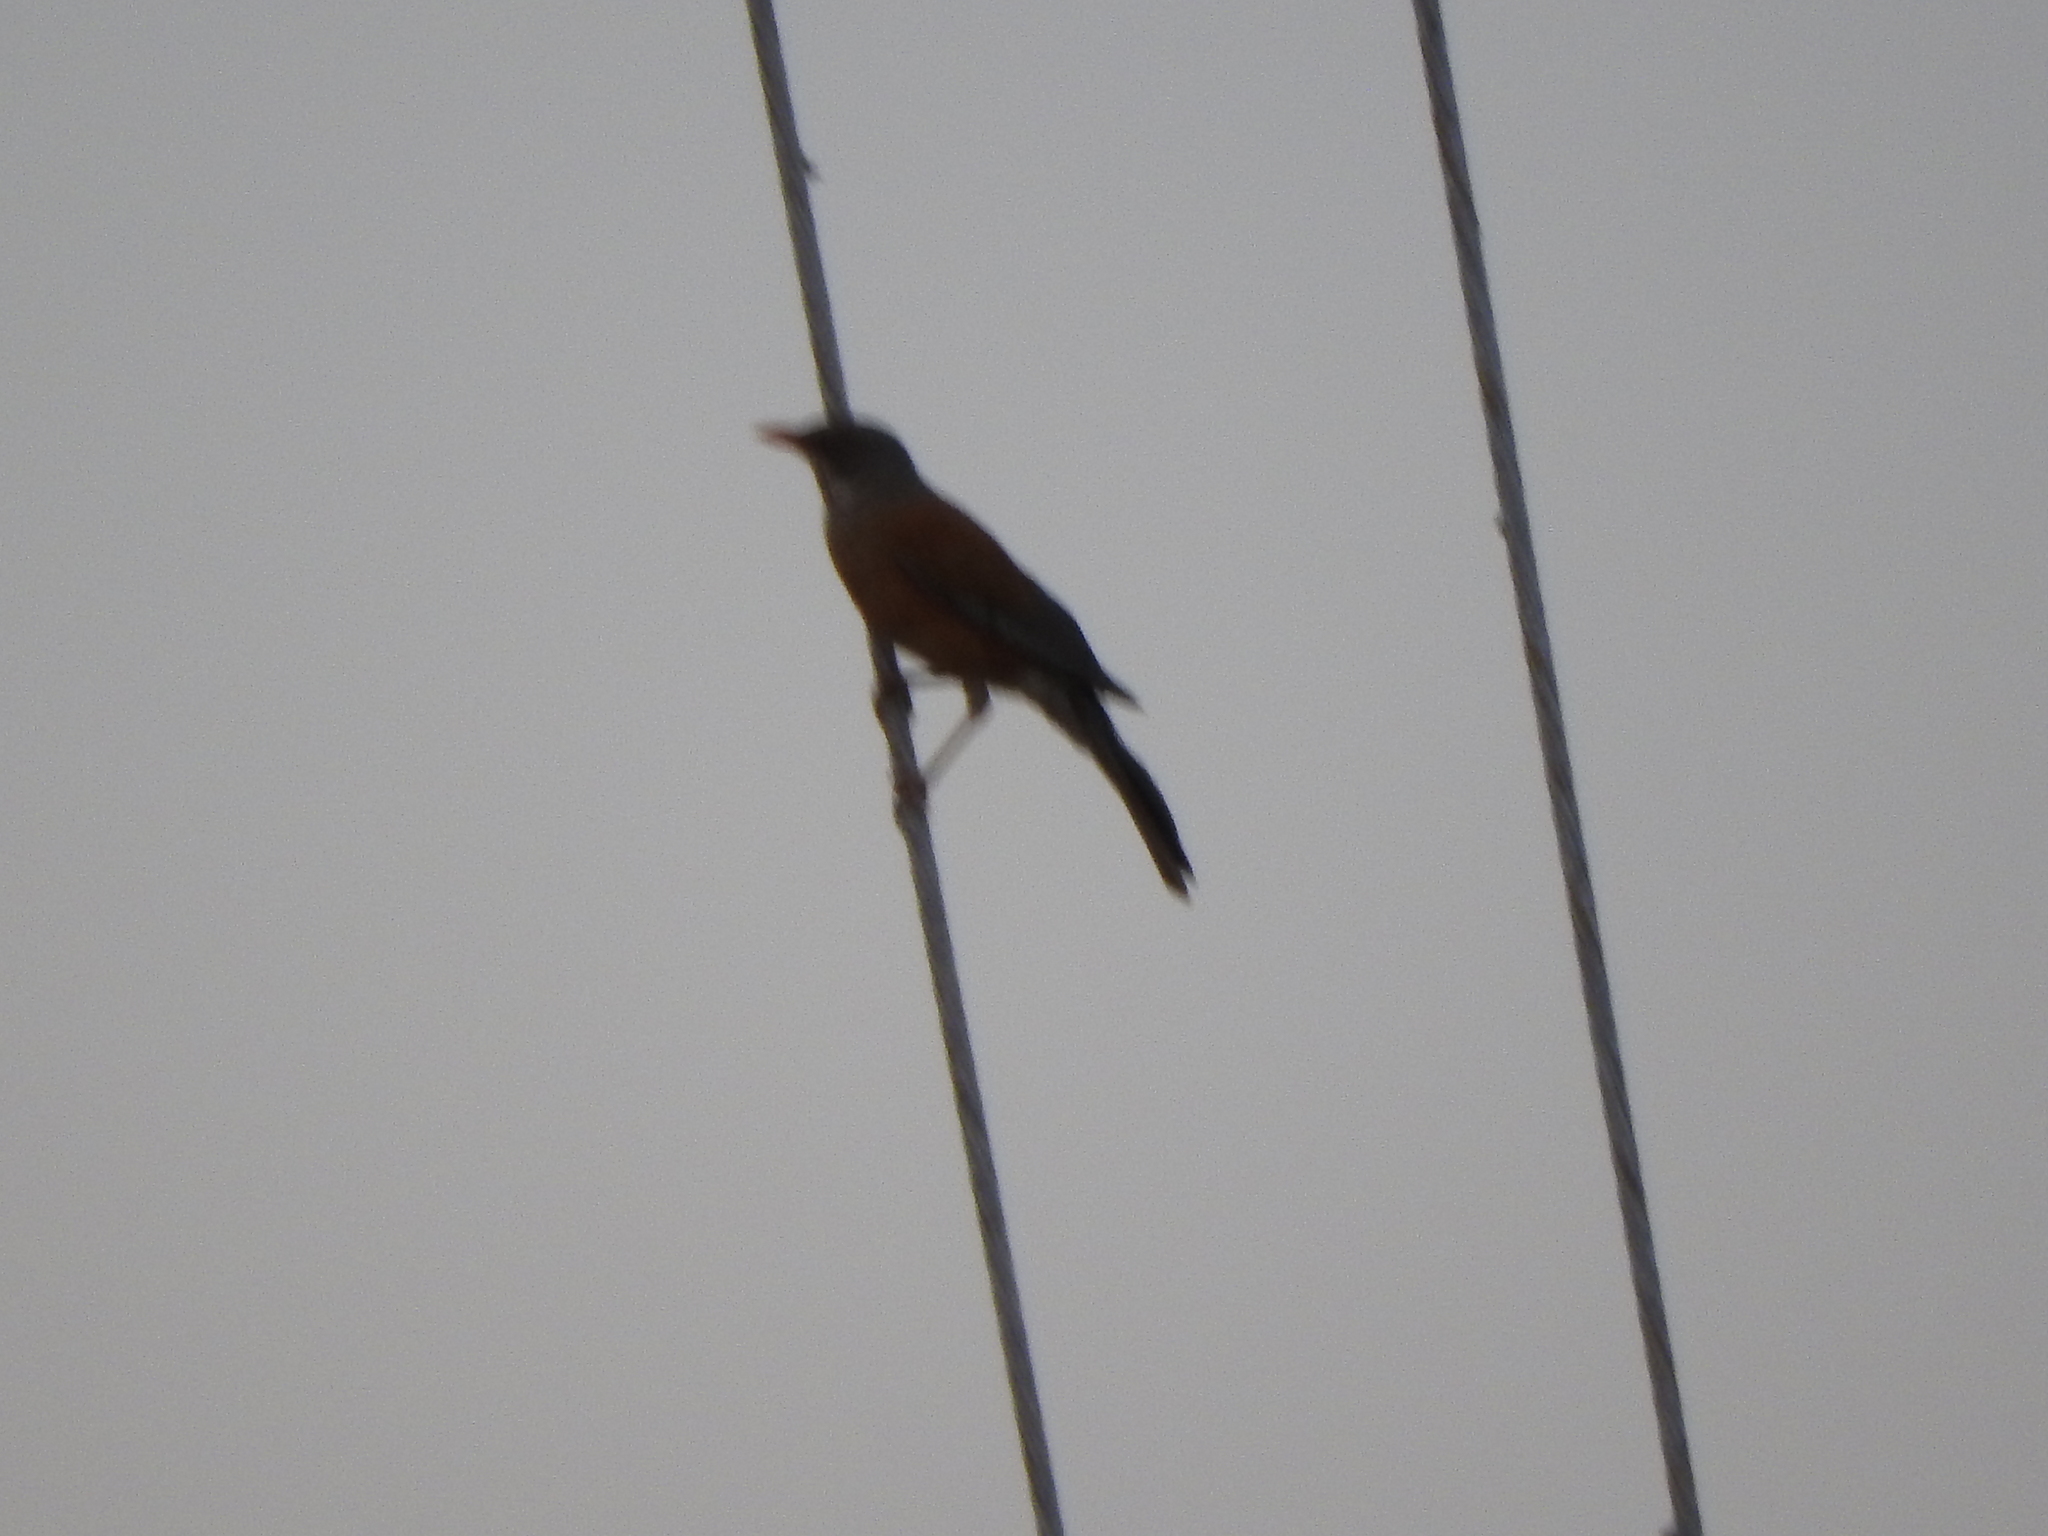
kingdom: Animalia
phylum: Chordata
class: Aves
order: Passeriformes
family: Turdidae
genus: Turdus
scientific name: Turdus rufopalliatus
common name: Rufous-backed robin
